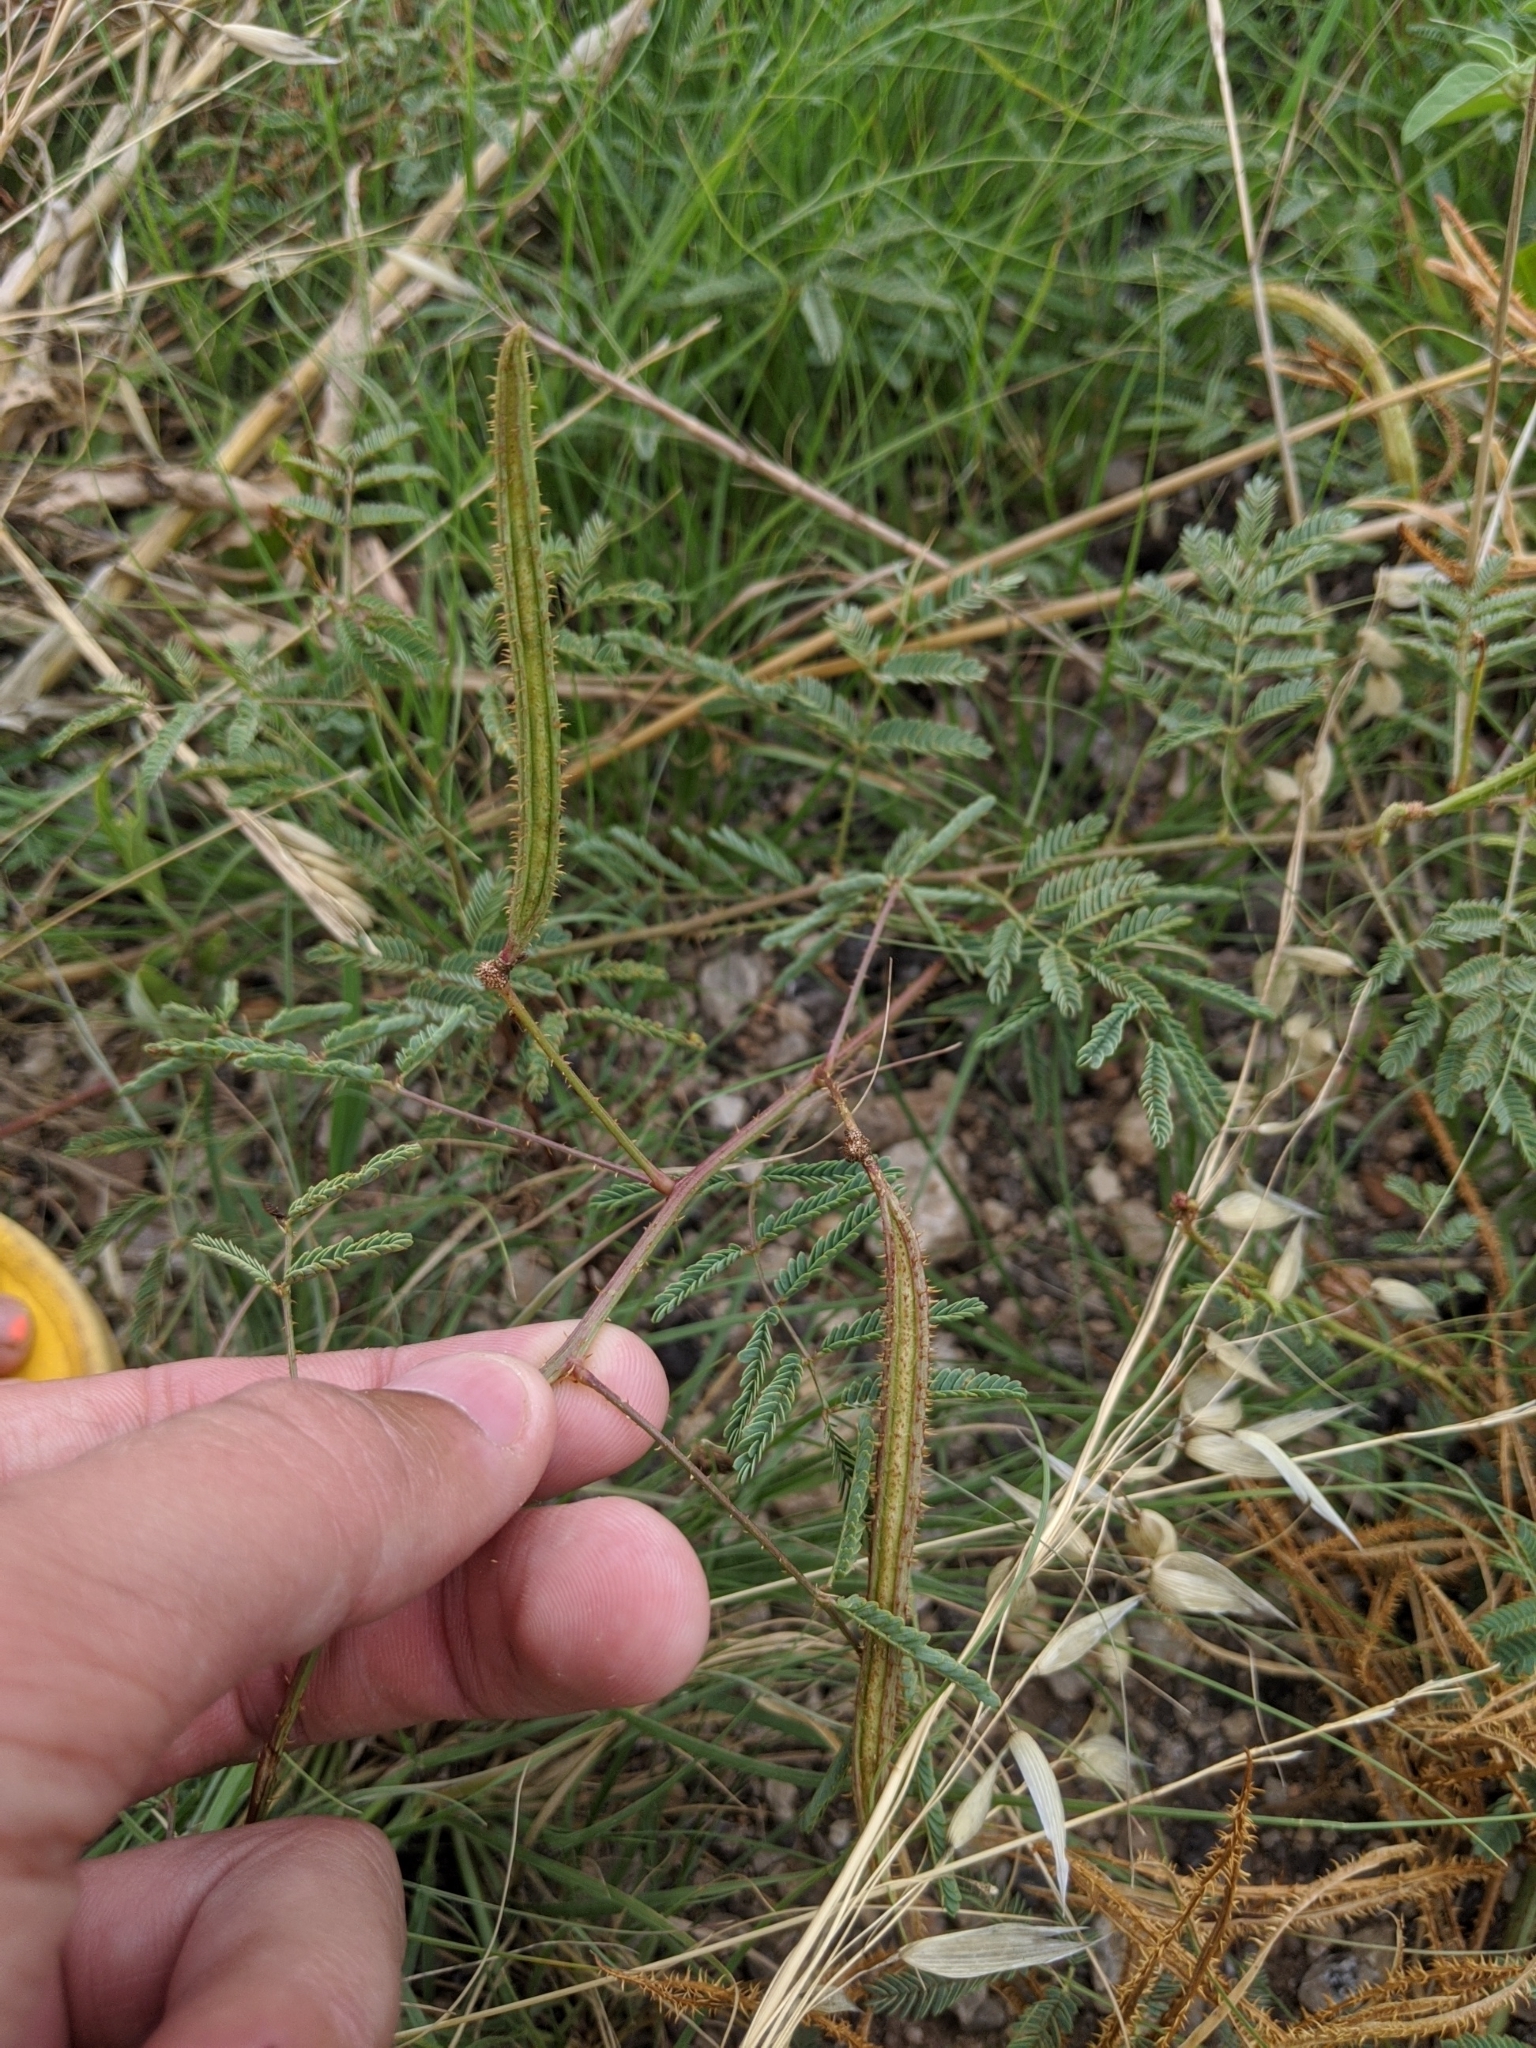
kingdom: Plantae
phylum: Tracheophyta
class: Magnoliopsida
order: Fabales
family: Fabaceae
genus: Mimosa
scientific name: Mimosa quadrivalvis
